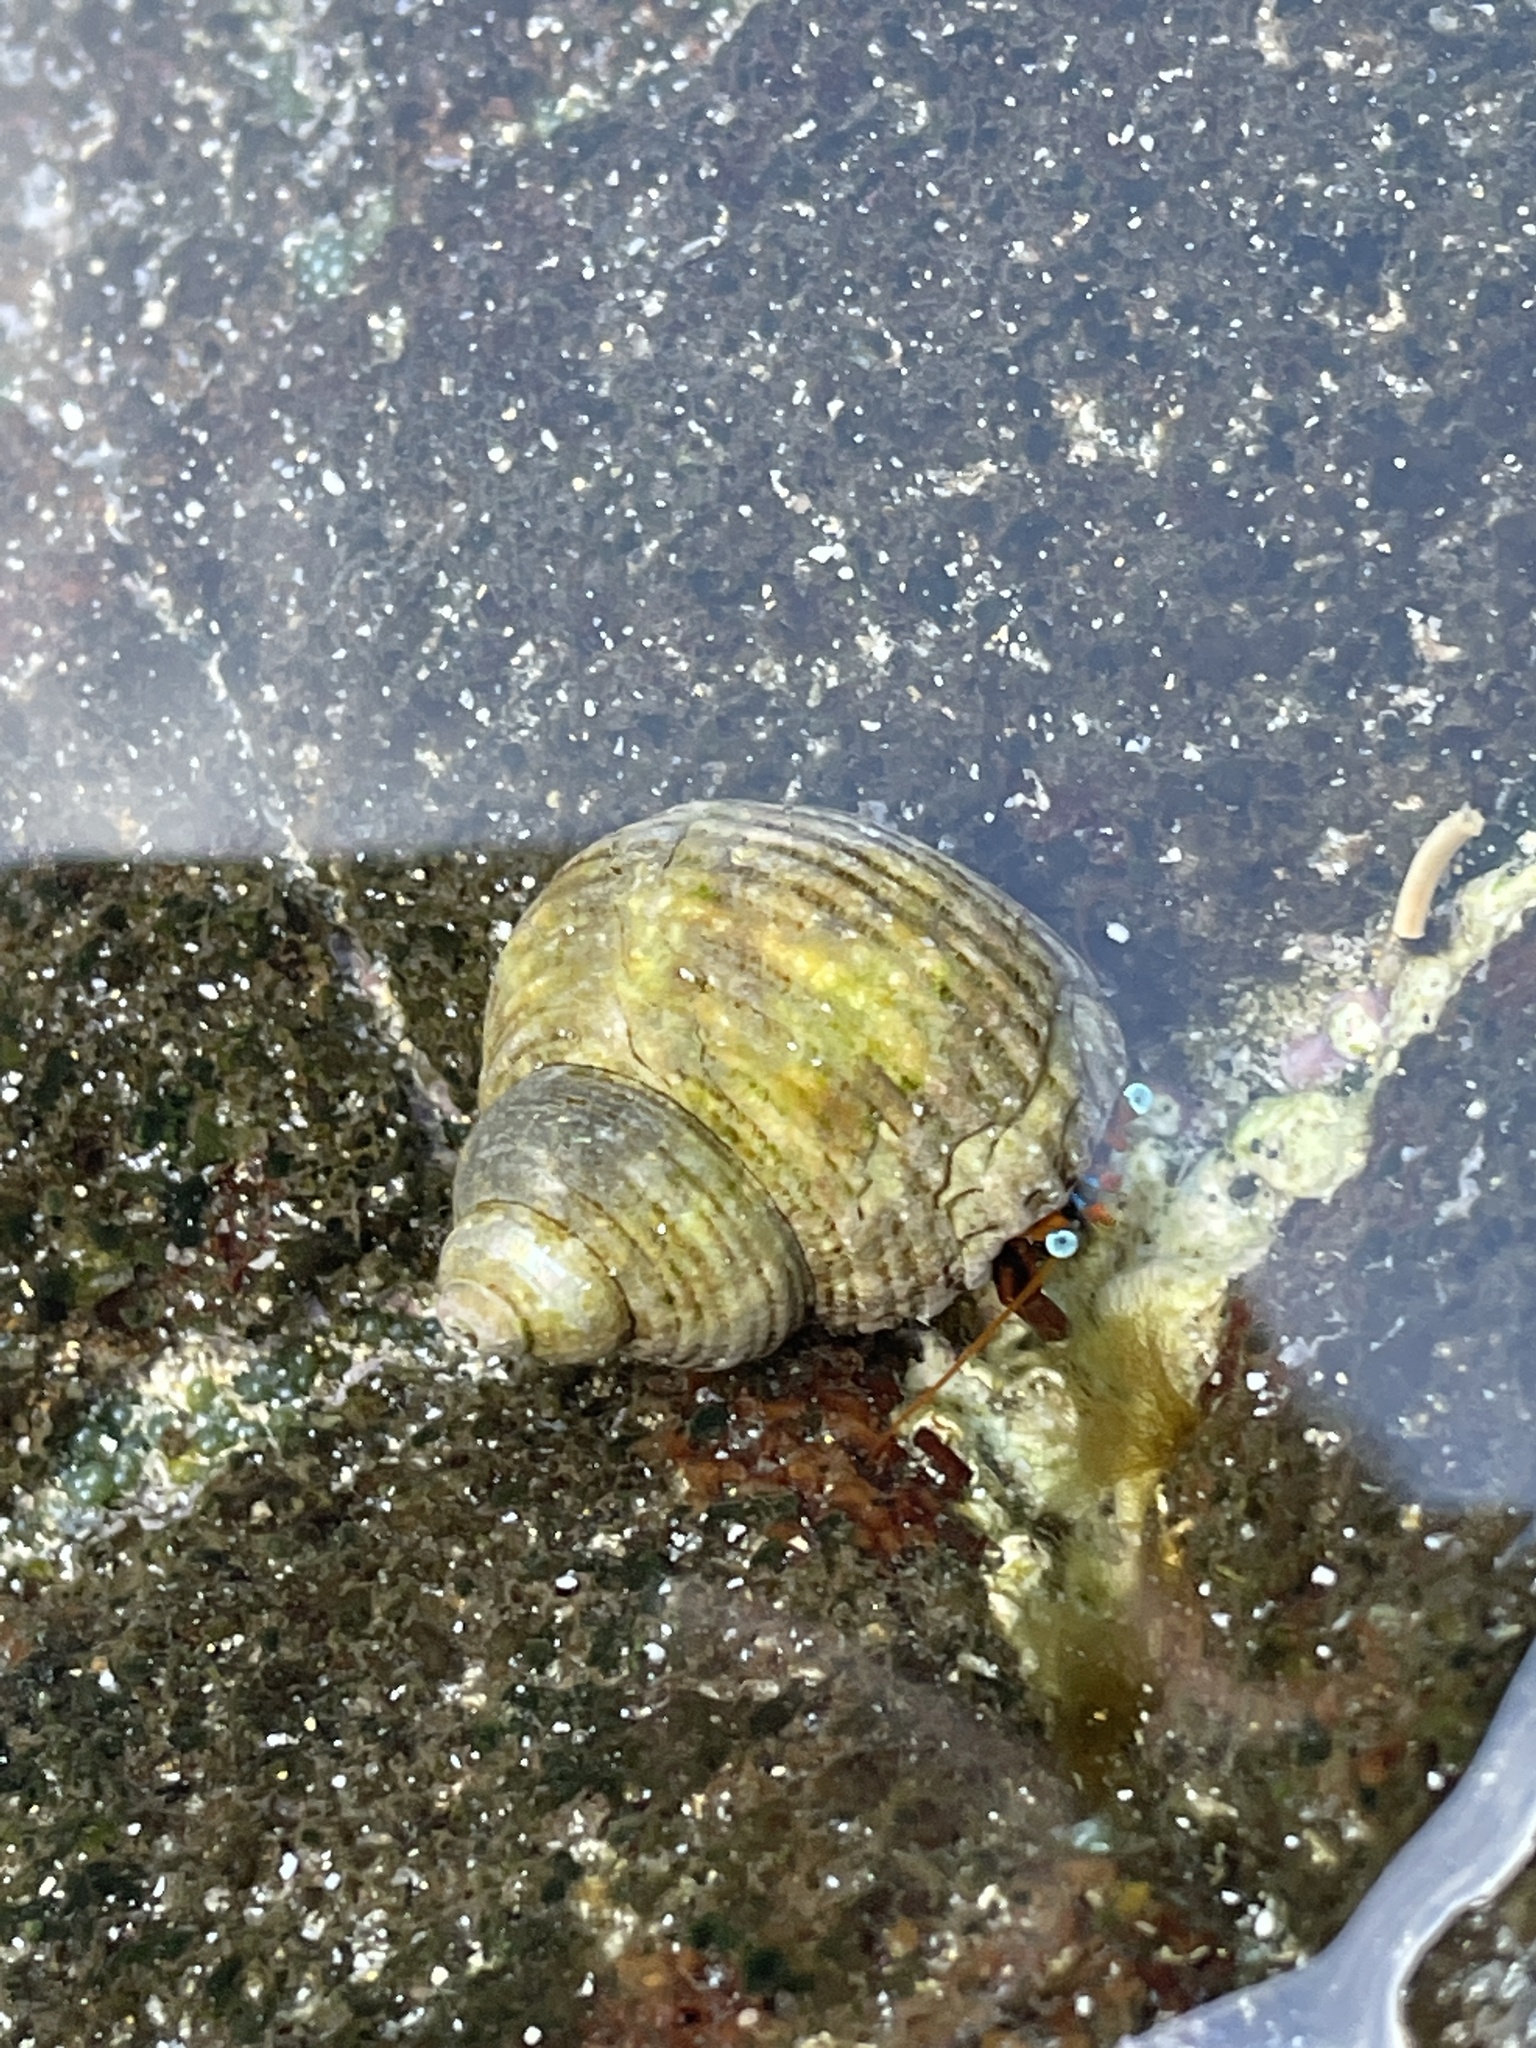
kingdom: Animalia
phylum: Arthropoda
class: Malacostraca
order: Decapoda
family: Diogenidae
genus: Calcinus
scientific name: Calcinus laevimanus
